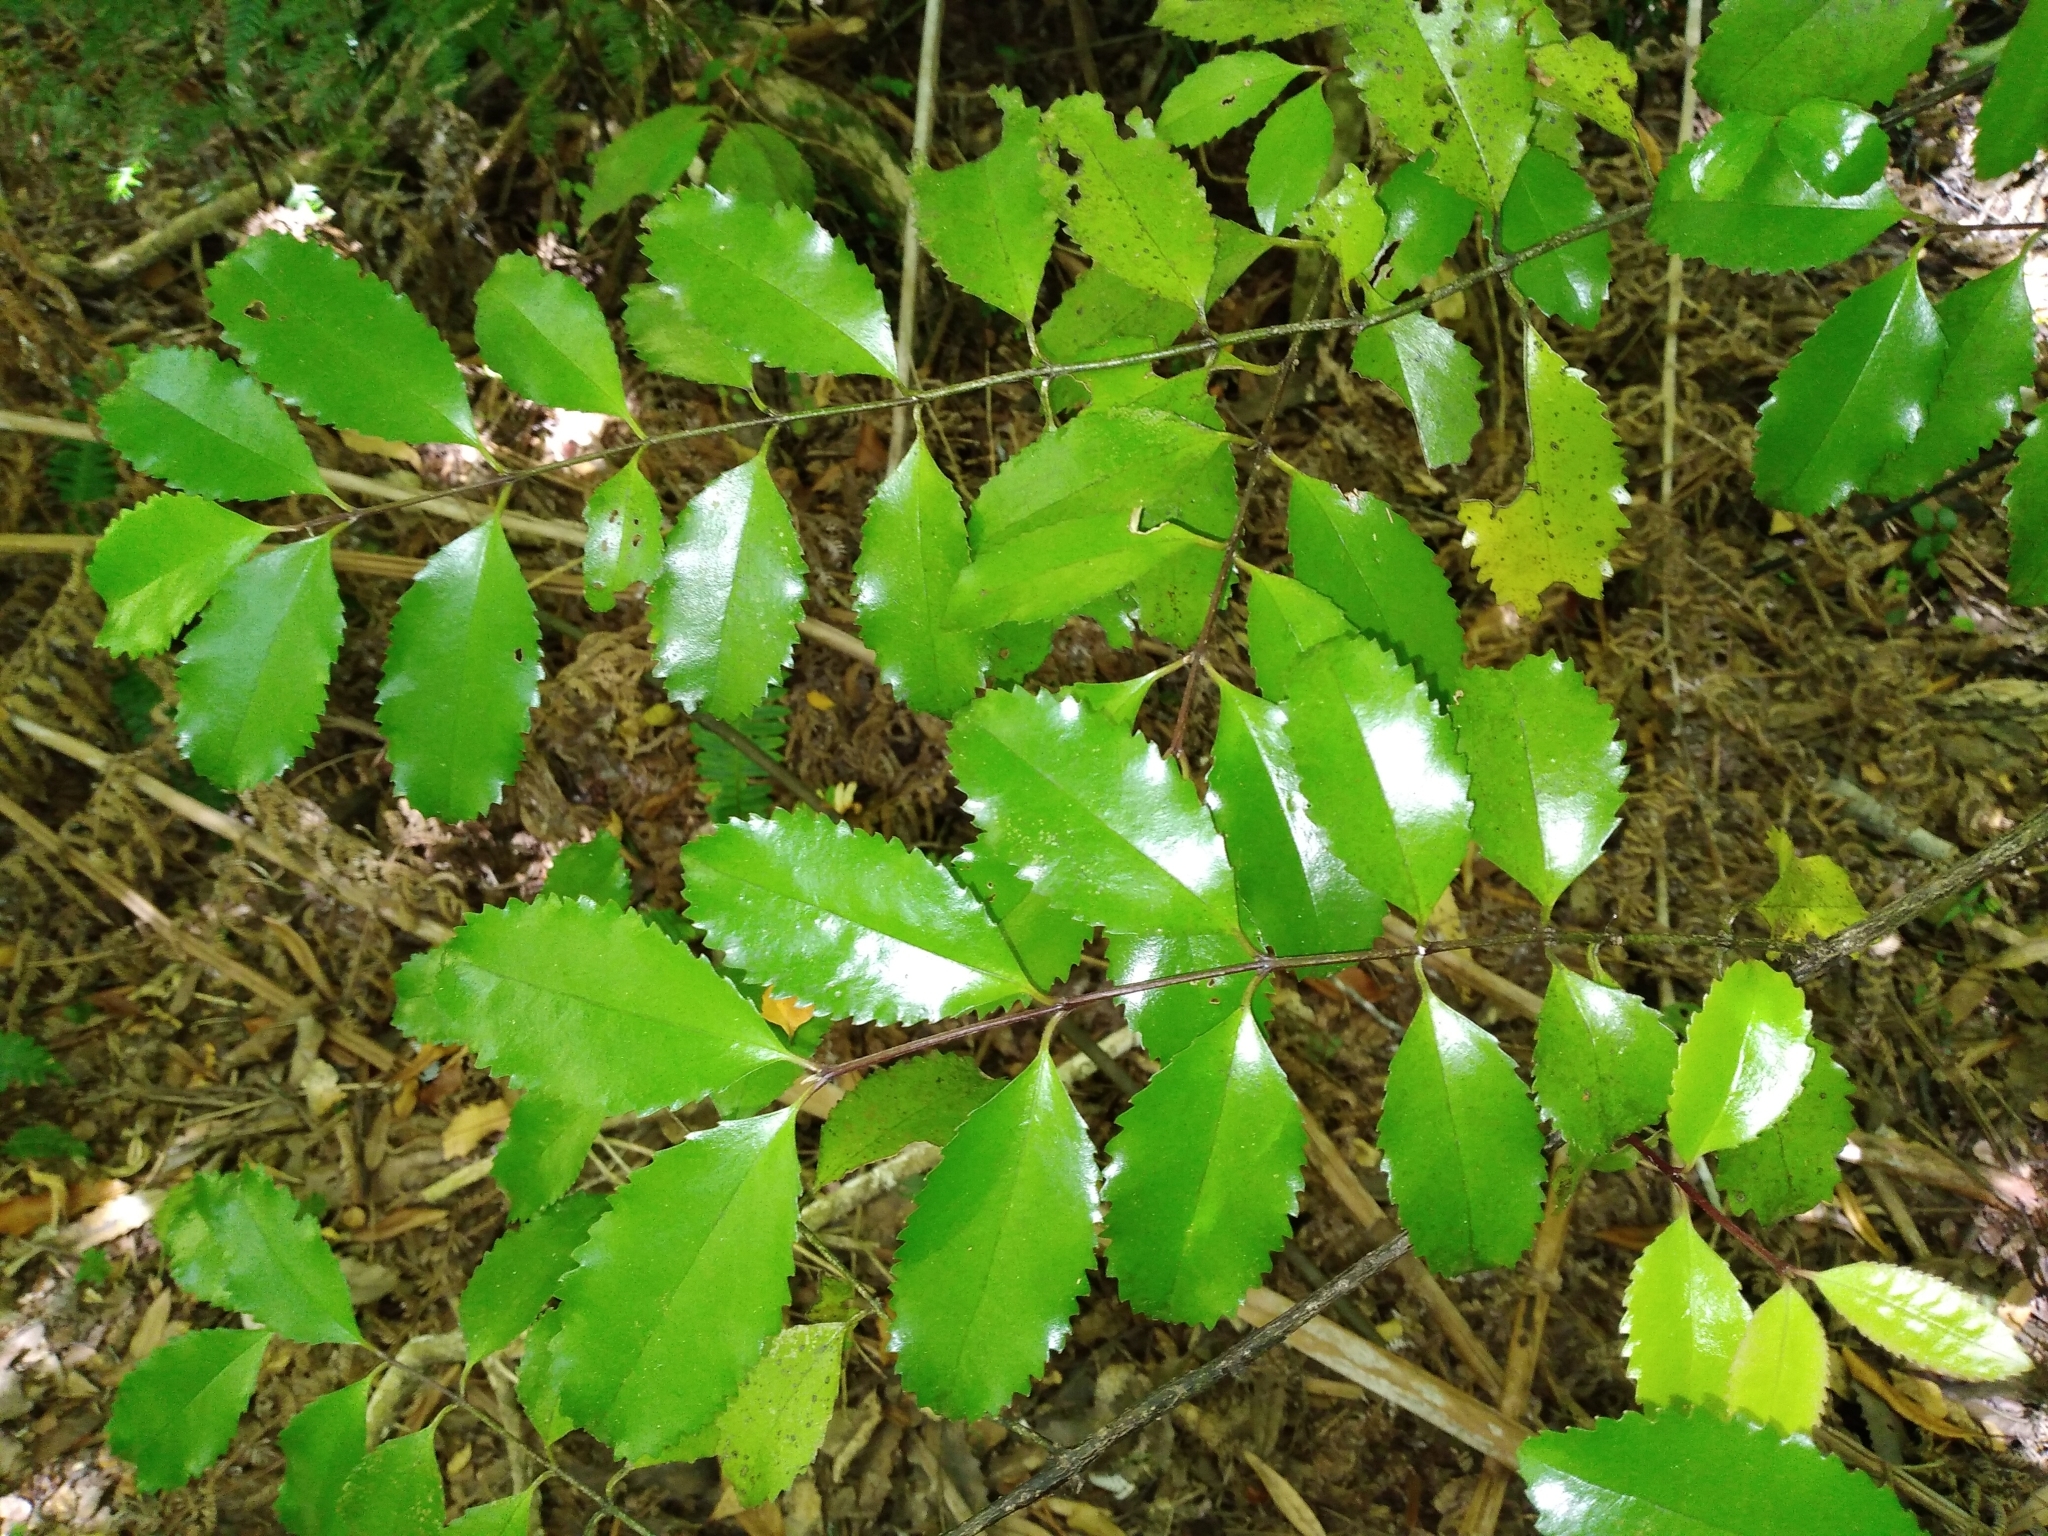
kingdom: Plantae
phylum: Tracheophyta
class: Magnoliopsida
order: Laurales
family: Atherospermataceae
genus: Laurelia
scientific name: Laurelia novae-zelandiae
